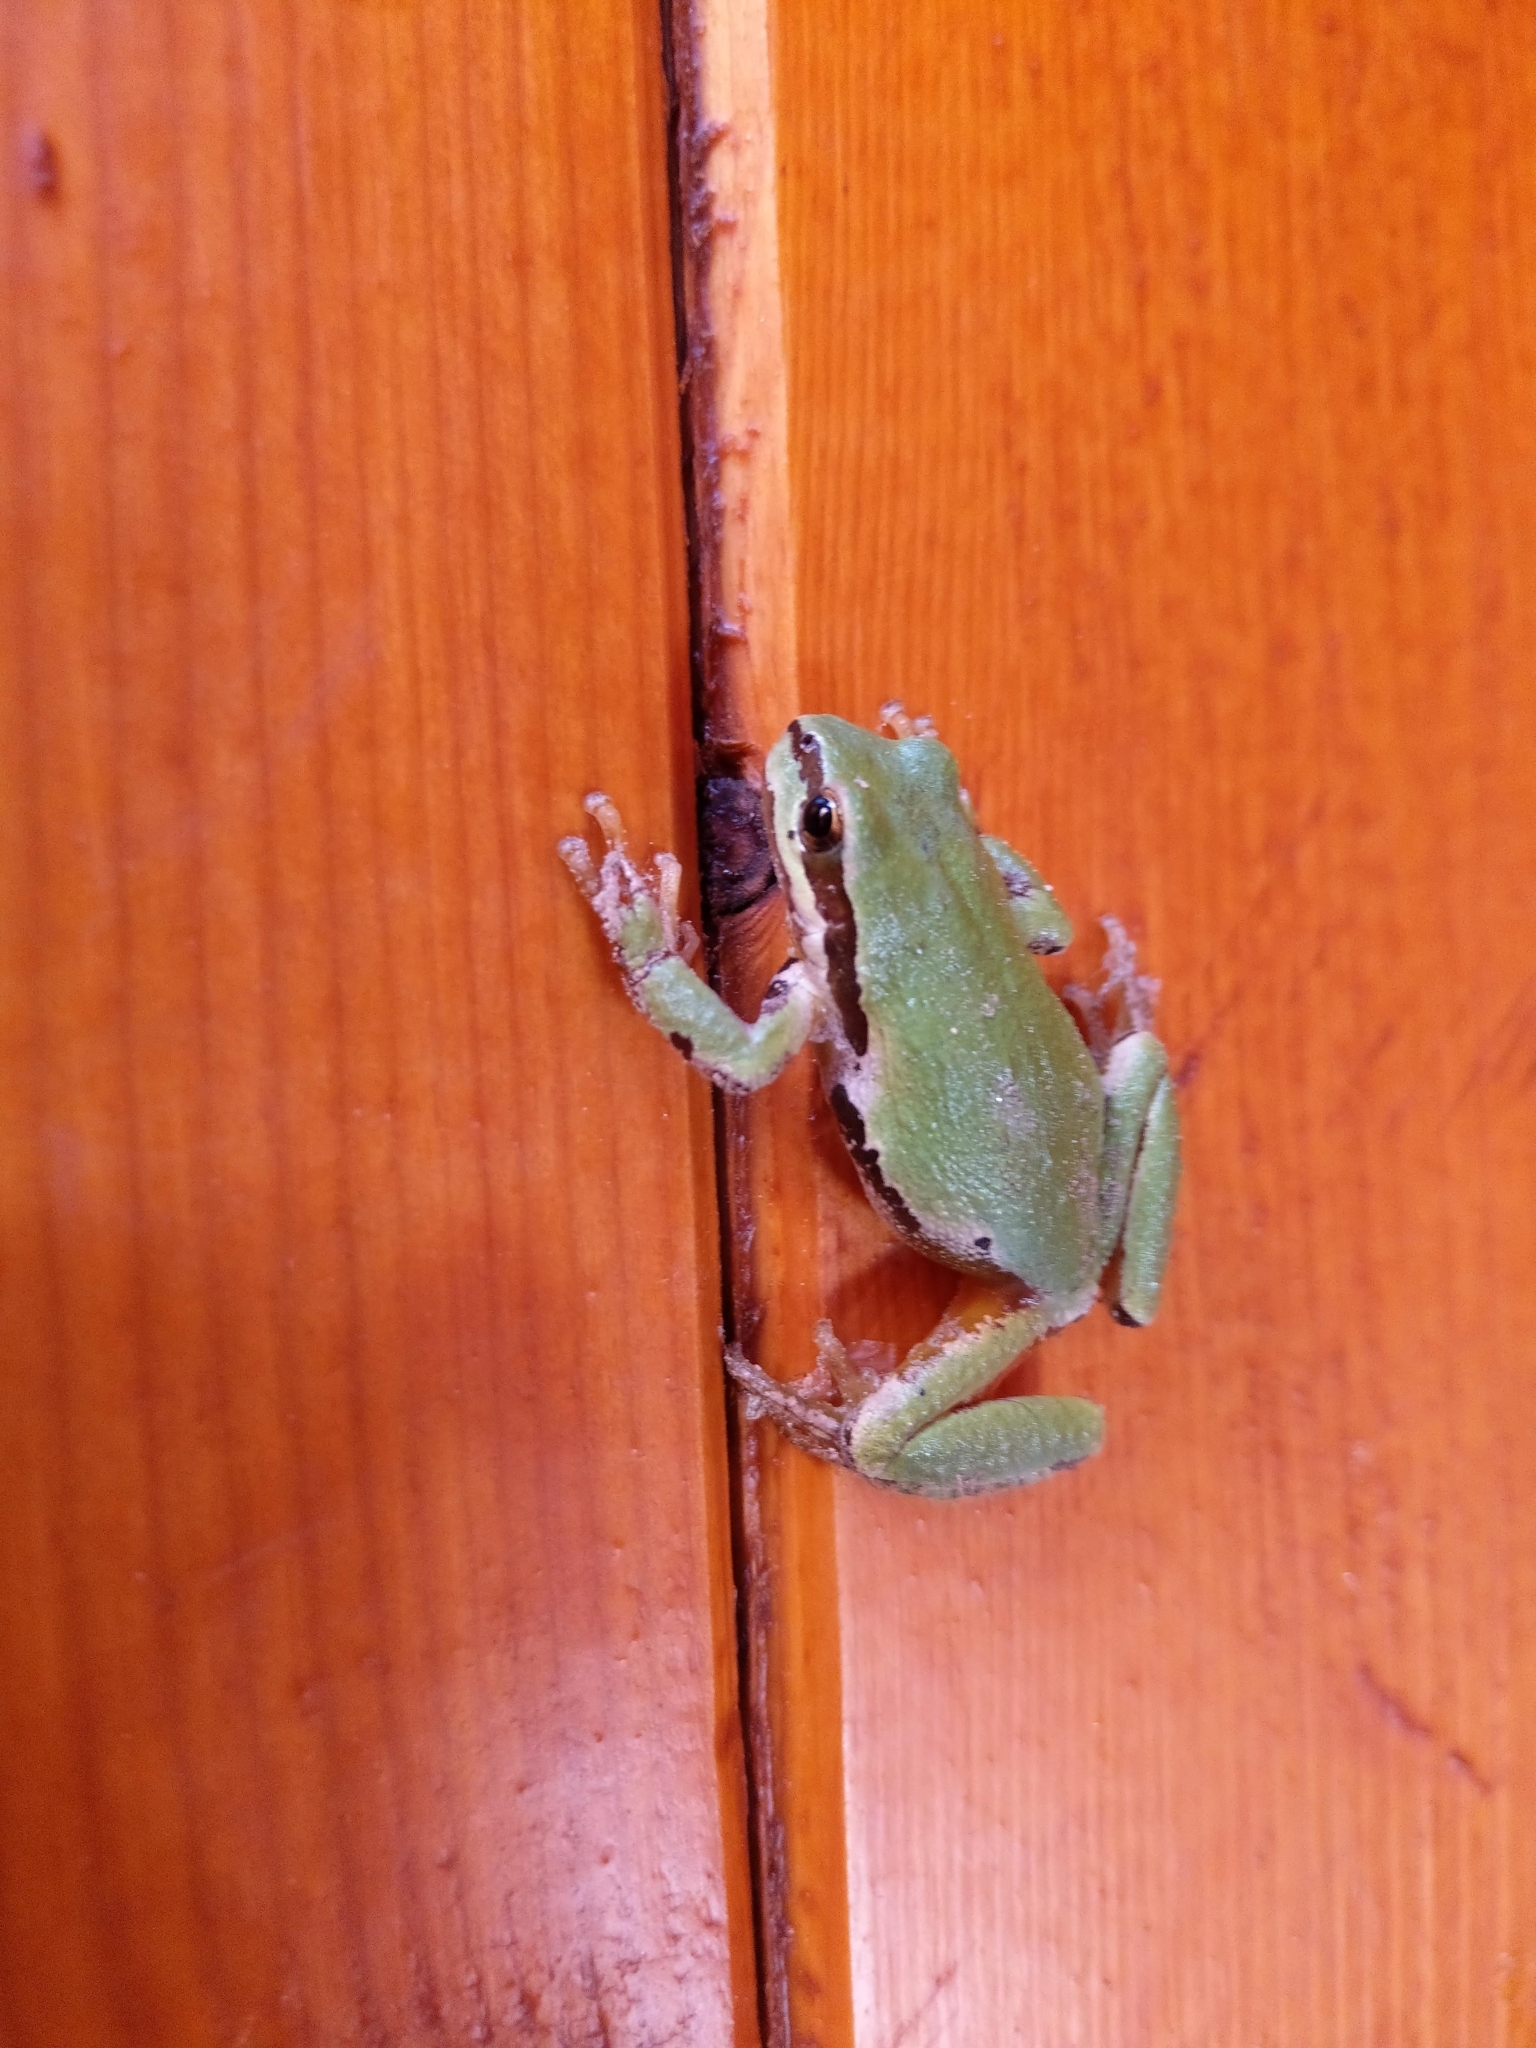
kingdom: Animalia
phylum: Chordata
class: Amphibia
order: Anura
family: Hylidae
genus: Pseudacris
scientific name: Pseudacris regilla
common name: Pacific chorus frog
